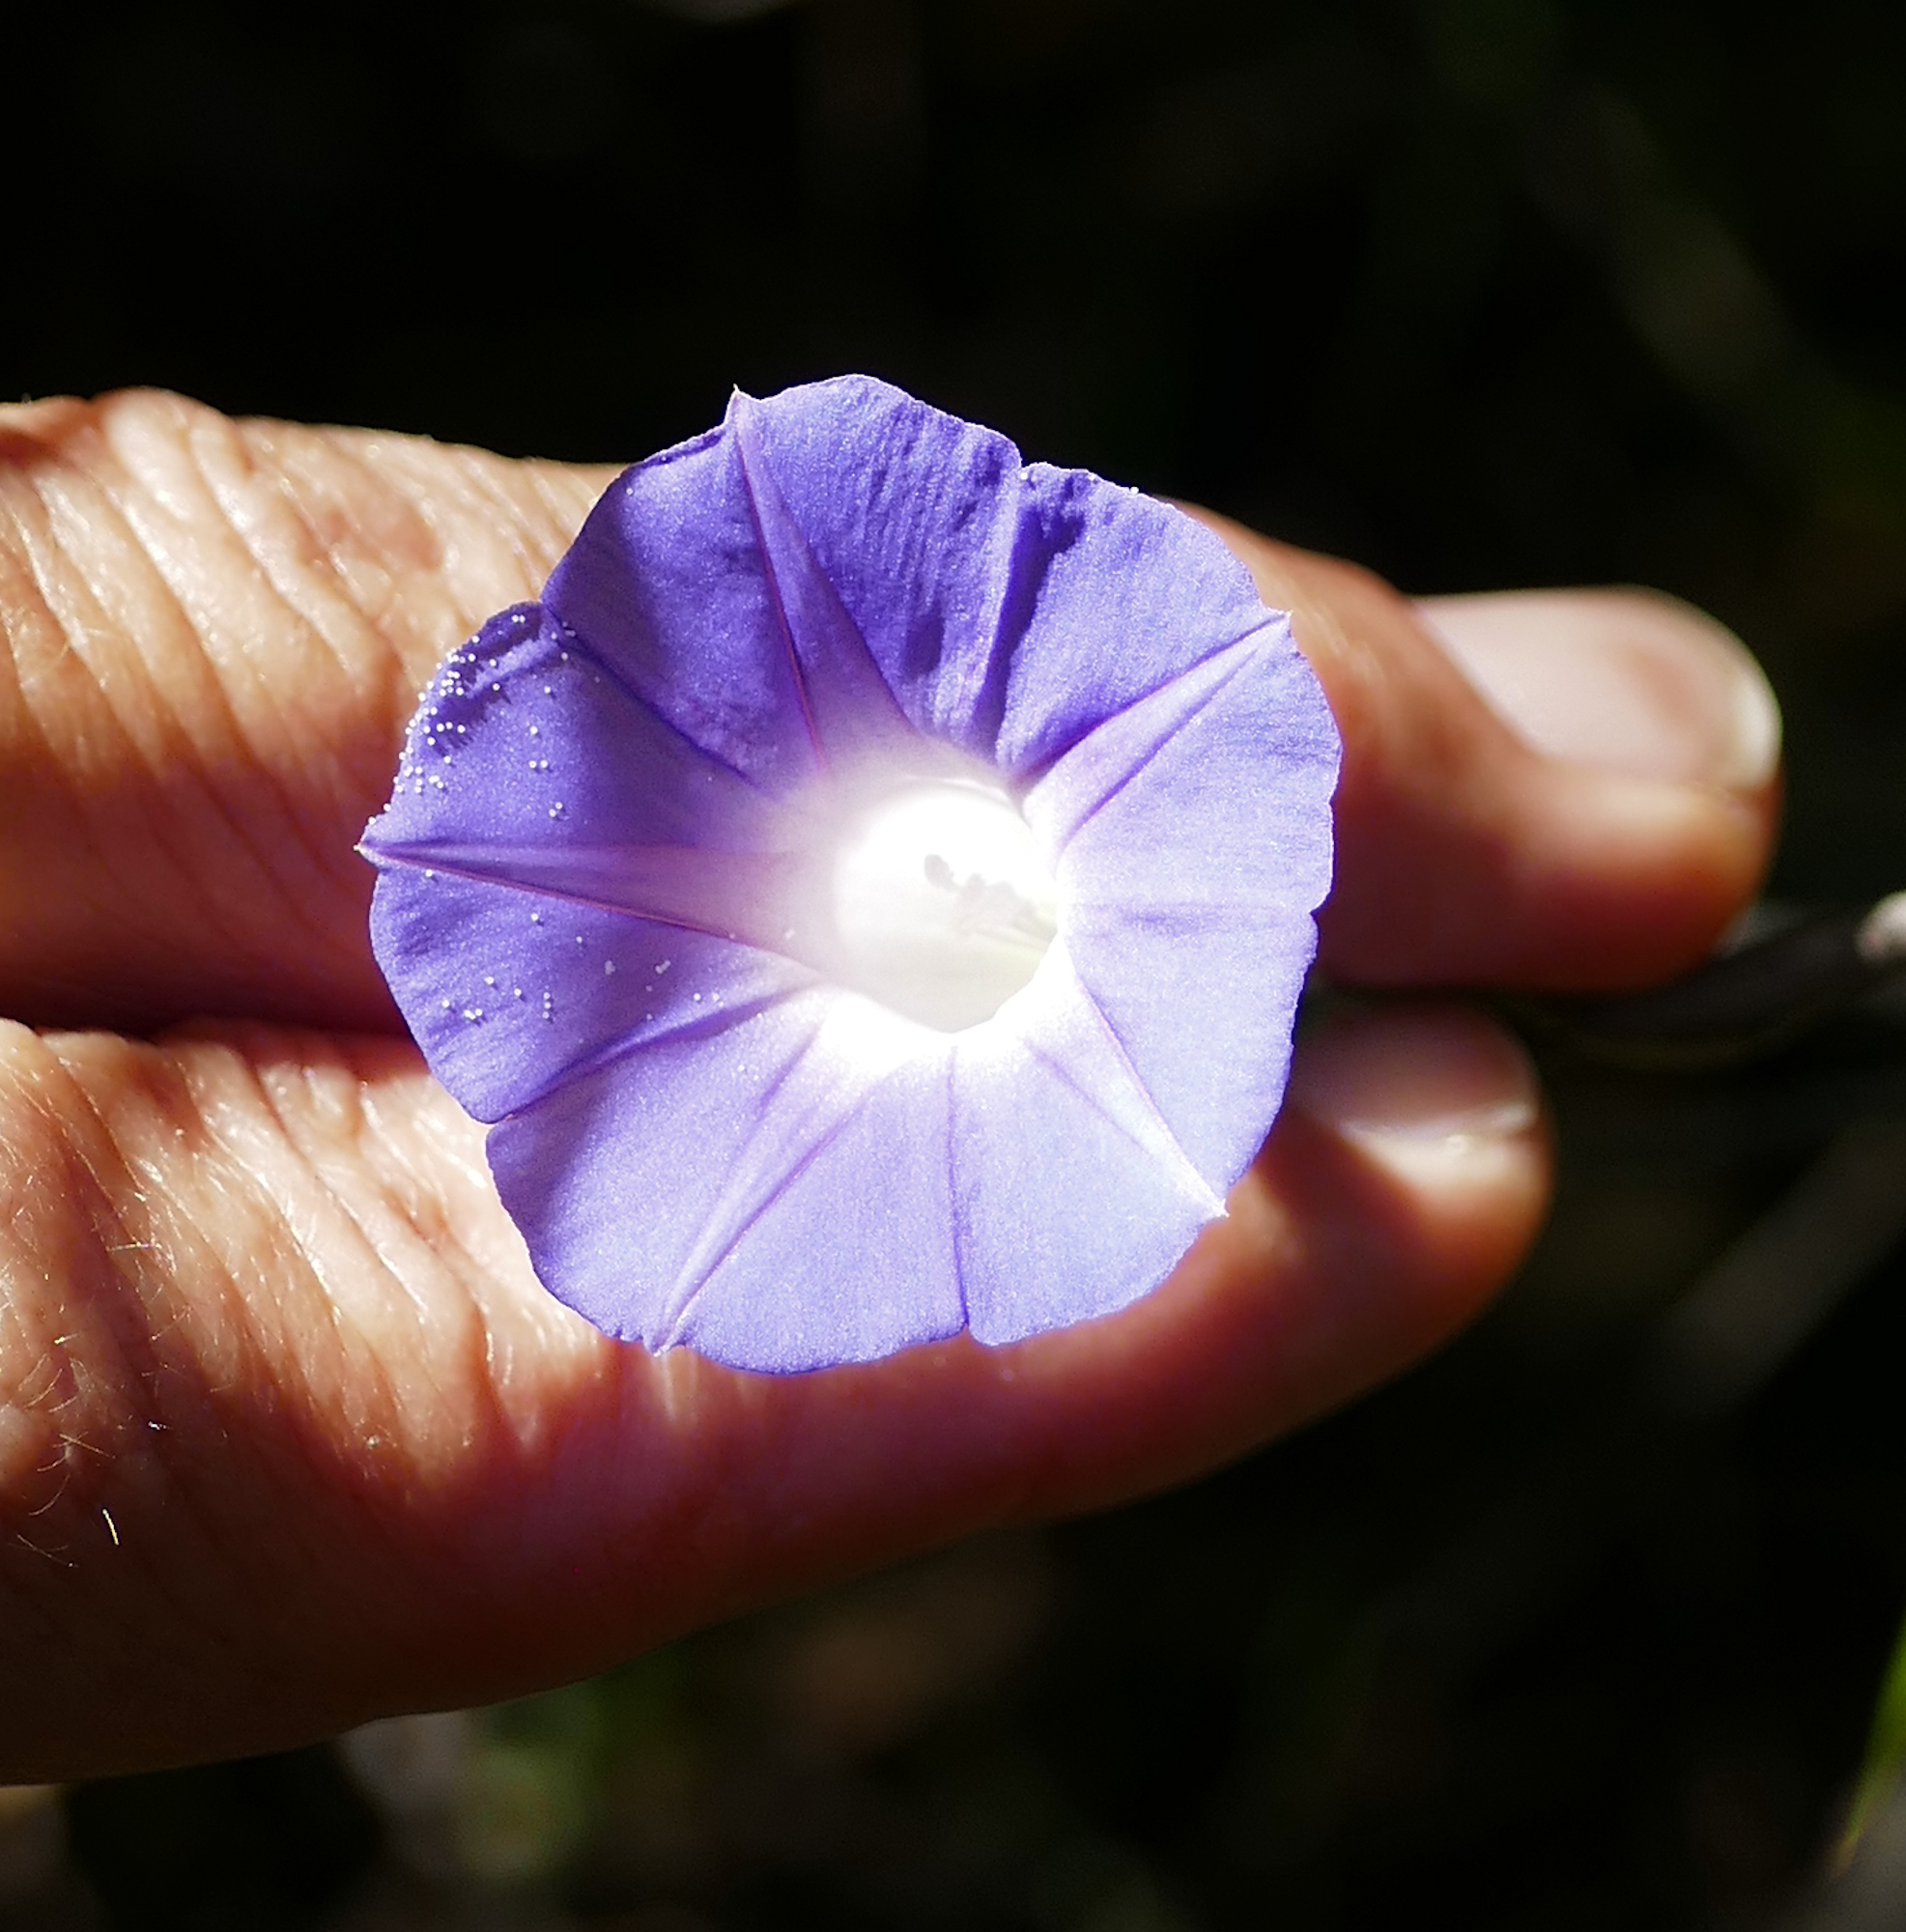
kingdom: Plantae
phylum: Tracheophyta
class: Magnoliopsida
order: Solanales
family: Convolvulaceae
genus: Ipomoea
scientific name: Ipomoea purpurea
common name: Common morning-glory
